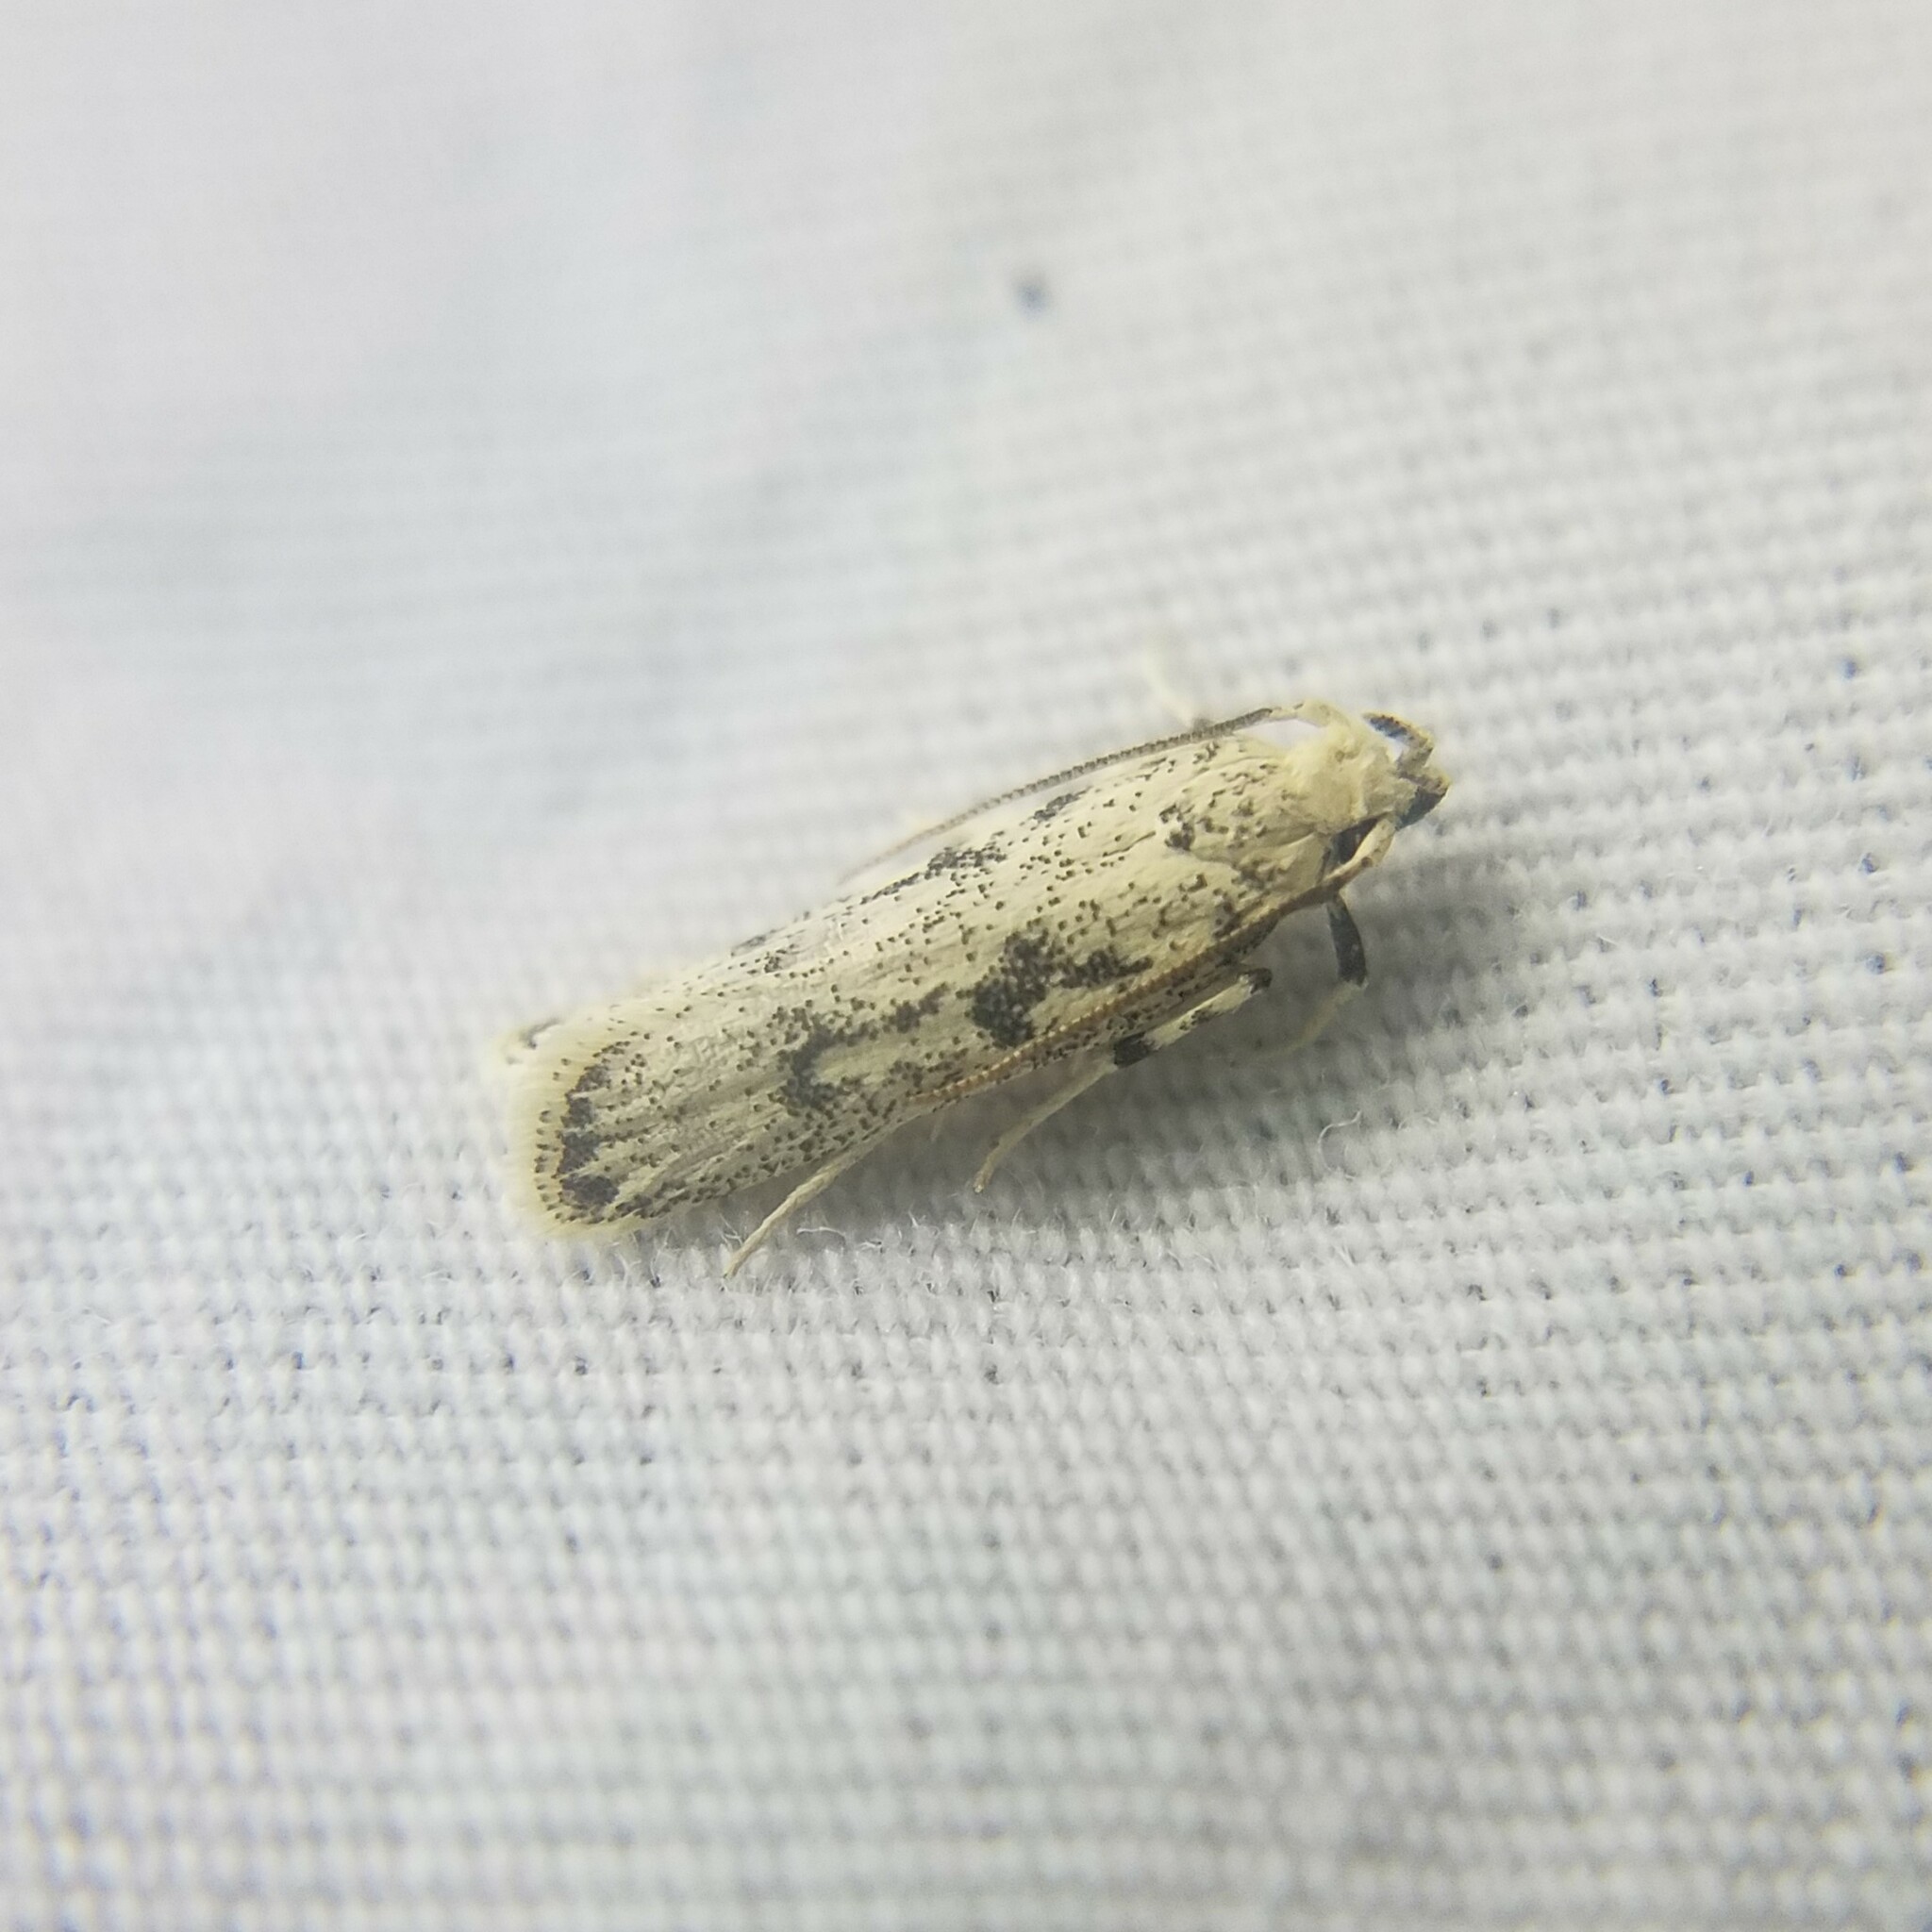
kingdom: Animalia
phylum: Arthropoda
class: Insecta
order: Lepidoptera
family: Autostichidae
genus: Glyphidocera
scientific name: Glyphidocera lactiflosella
